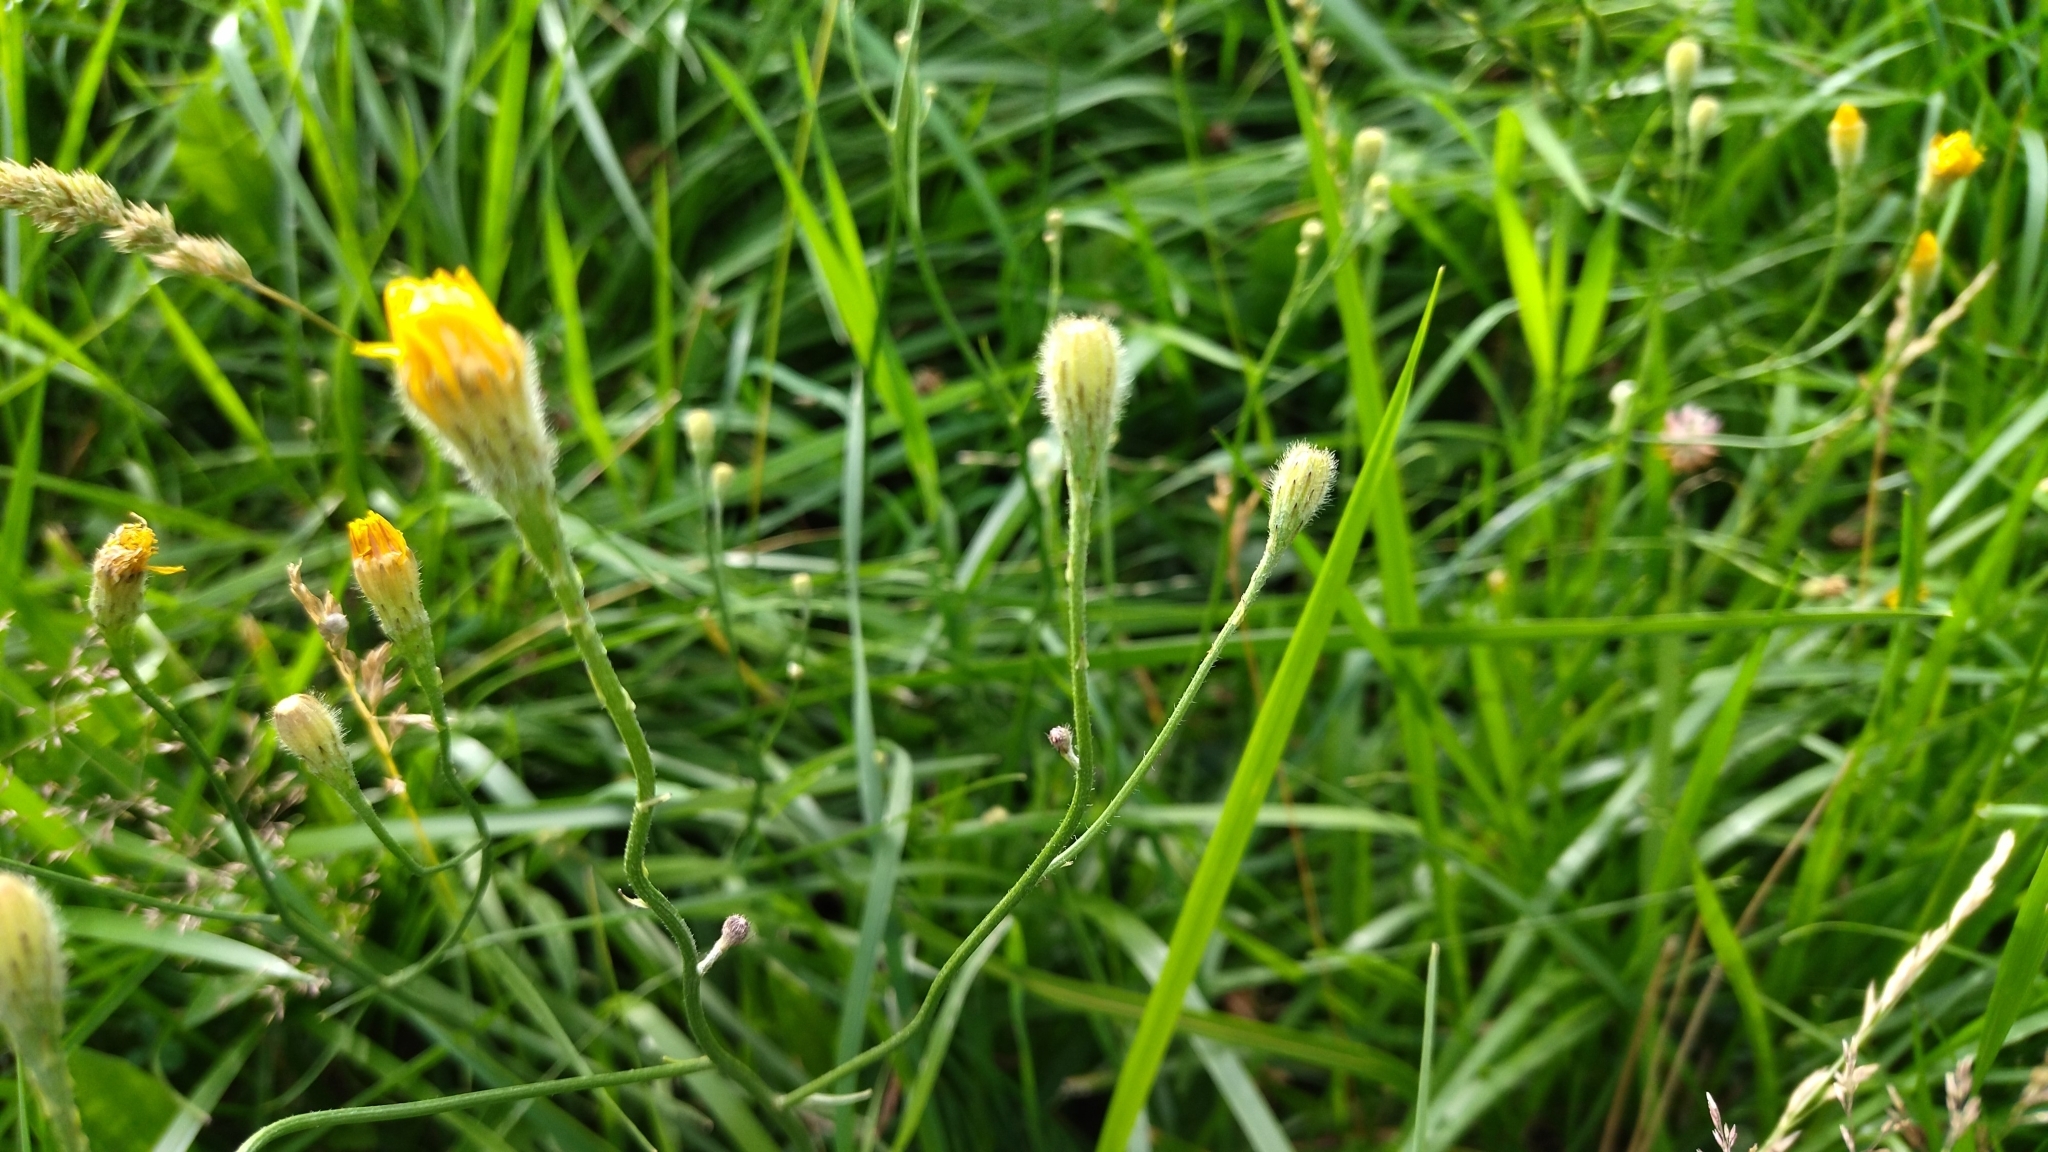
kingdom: Plantae
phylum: Tracheophyta
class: Magnoliopsida
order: Asterales
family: Asteraceae
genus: Scorzoneroides
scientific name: Scorzoneroides autumnalis
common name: Autumn hawkbit
